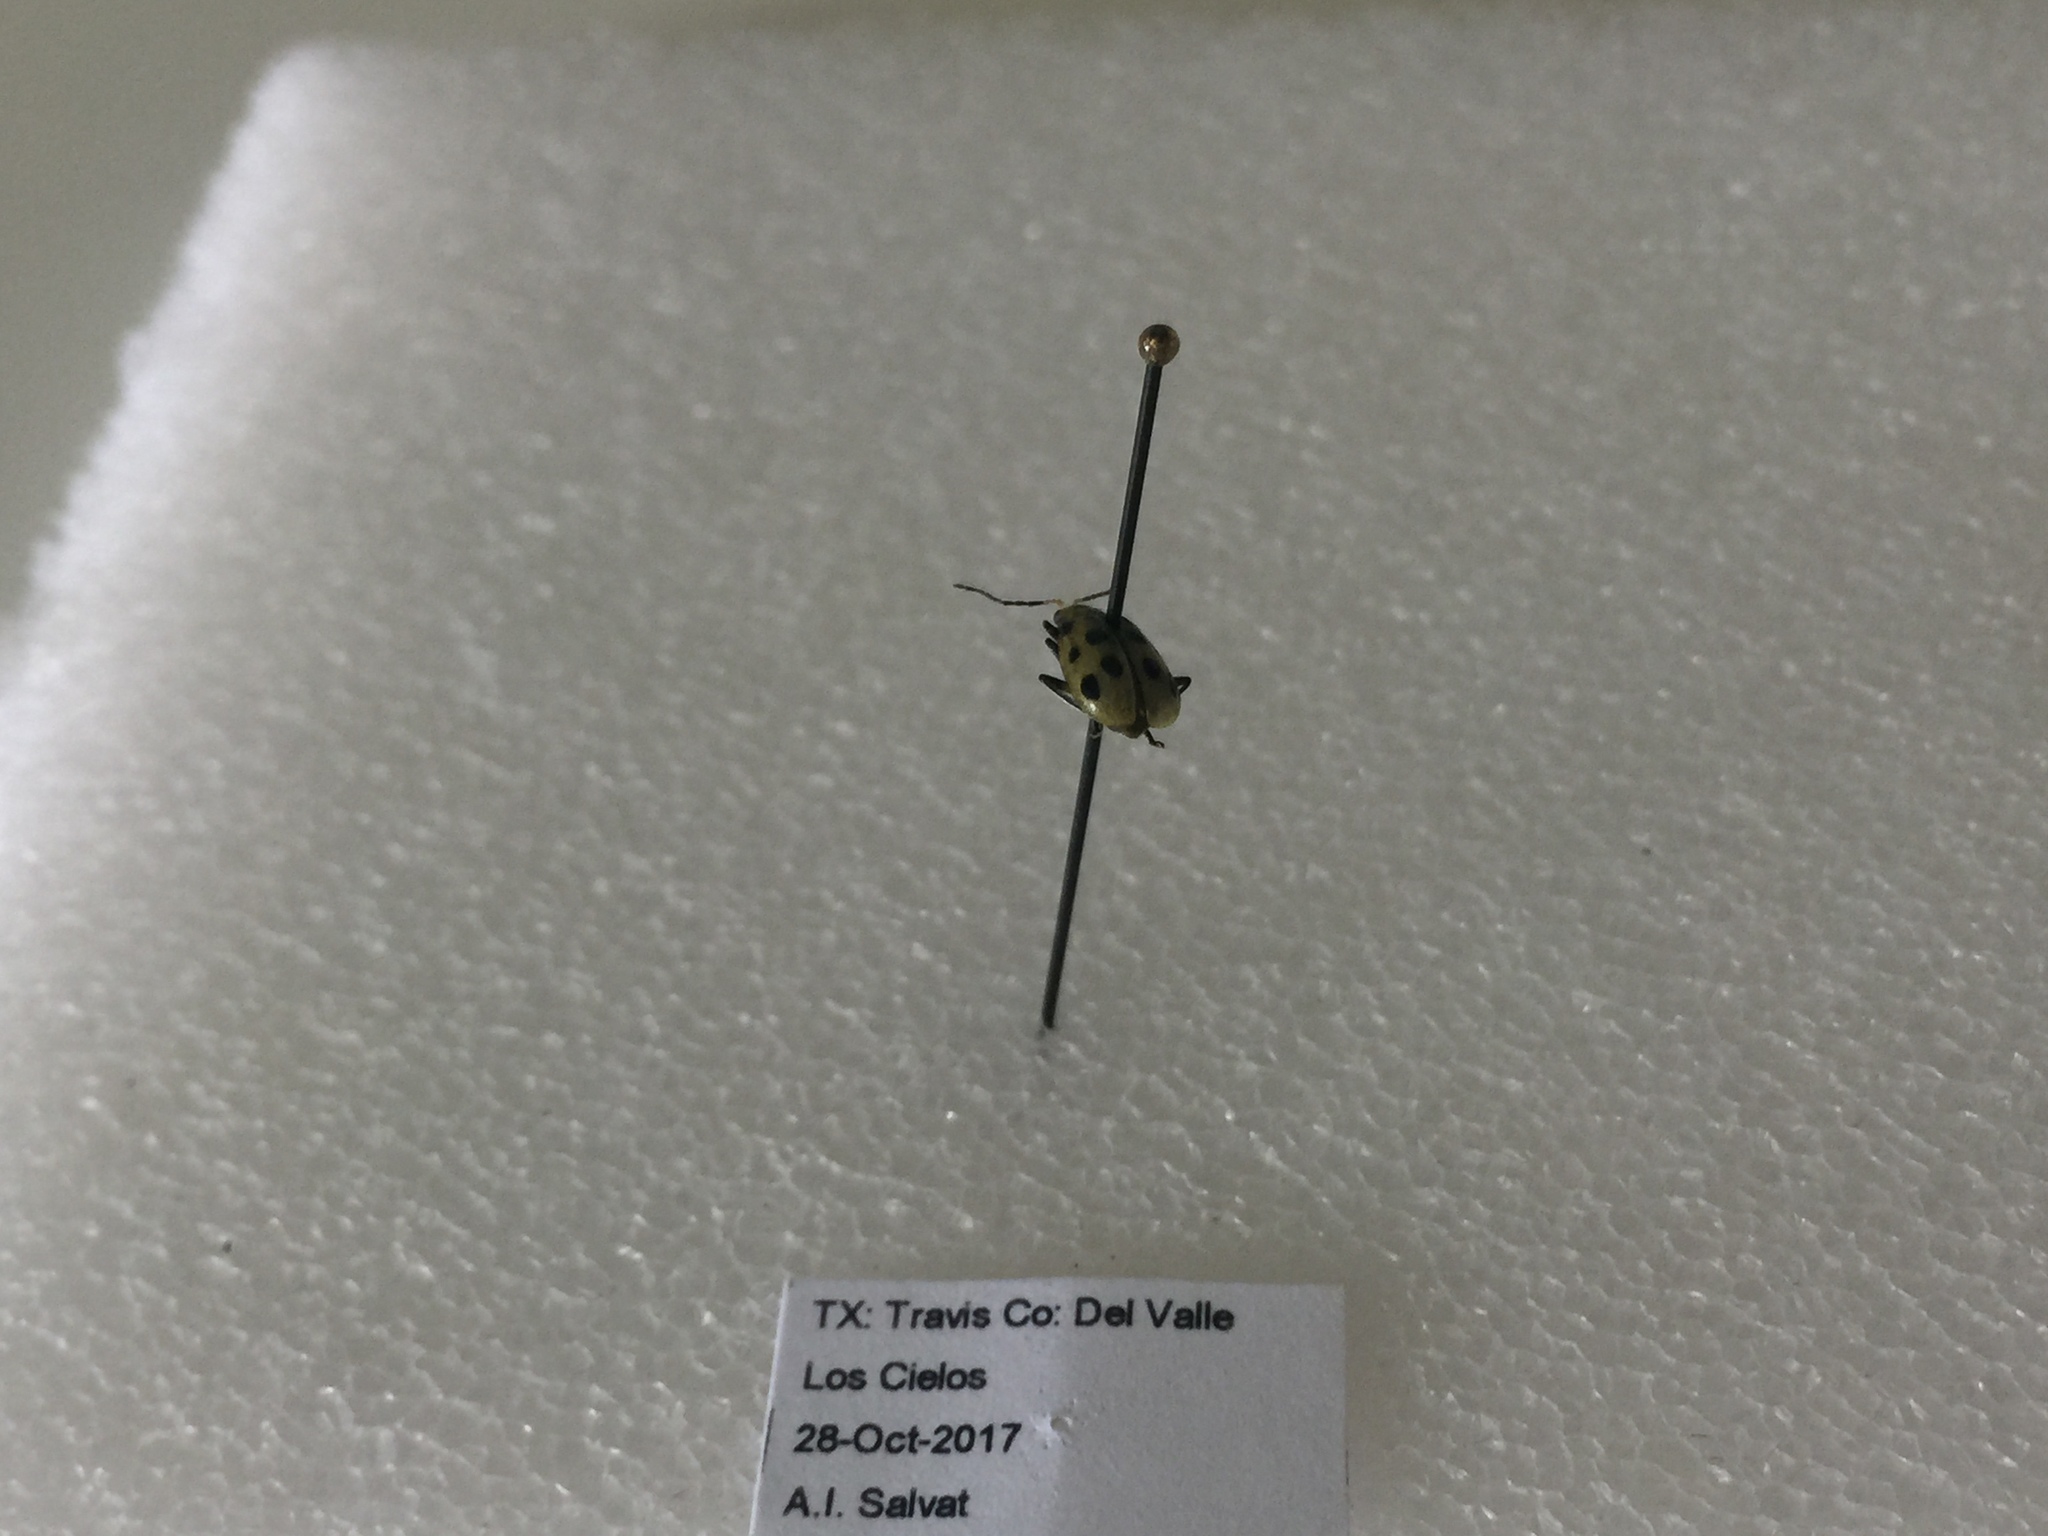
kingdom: Animalia
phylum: Arthropoda
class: Insecta
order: Coleoptera
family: Chrysomelidae
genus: Diabrotica
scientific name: Diabrotica undecimpunctata
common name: Spotted cucumber beetle
